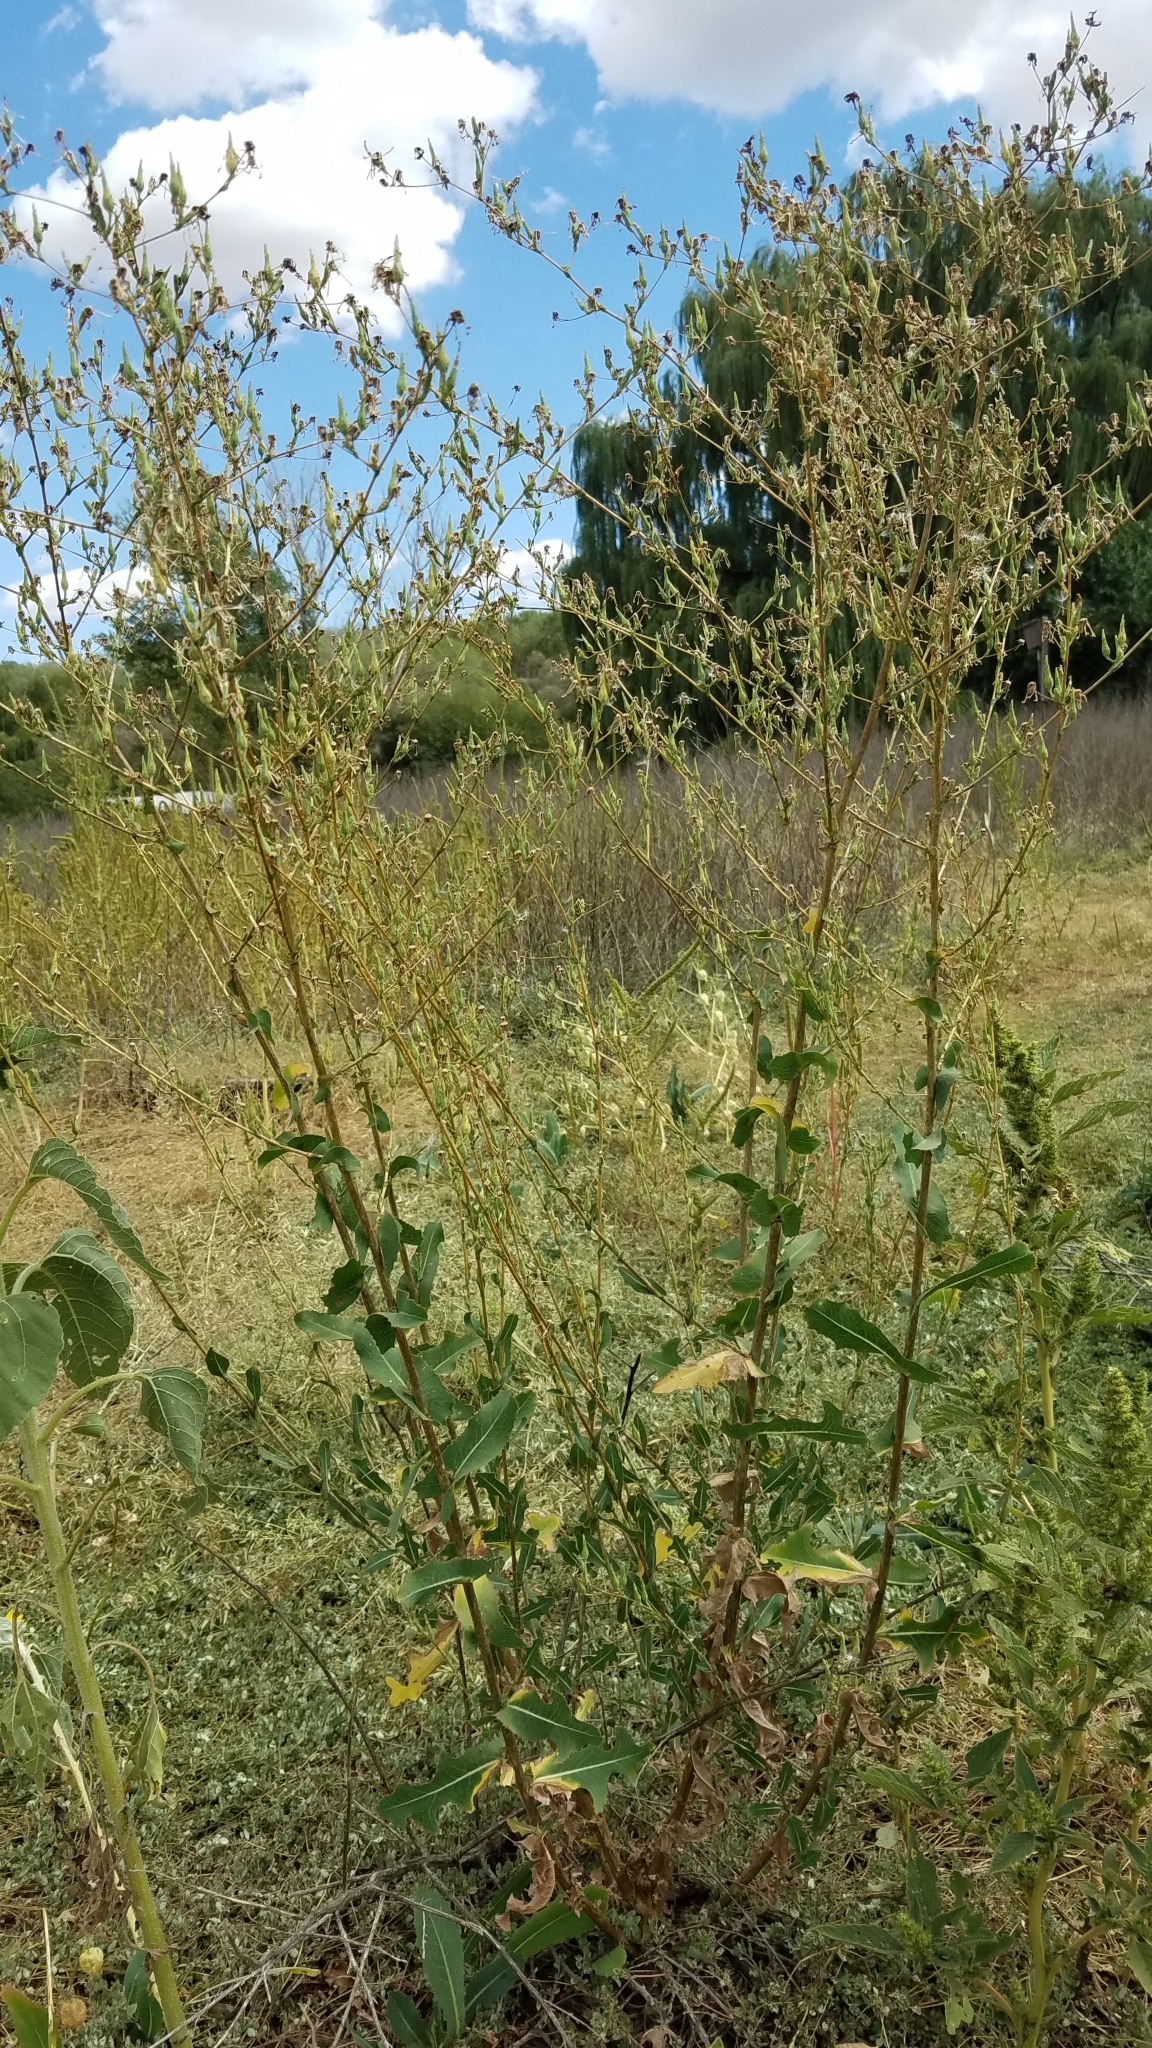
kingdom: Plantae
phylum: Tracheophyta
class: Magnoliopsida
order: Asterales
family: Asteraceae
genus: Lactuca
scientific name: Lactuca serriola
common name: Prickly lettuce
